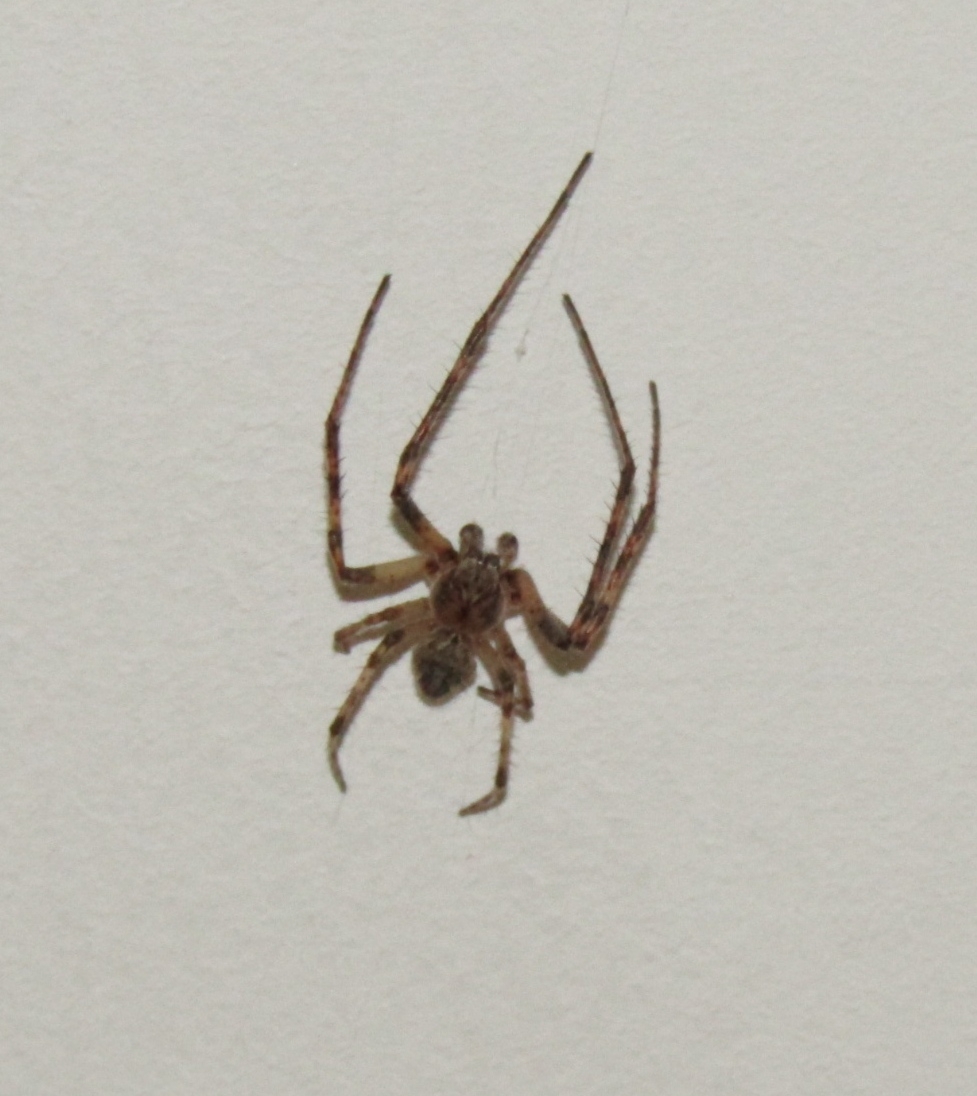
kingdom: Animalia
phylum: Arthropoda
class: Arachnida
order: Araneae
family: Araneidae
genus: Larinioides
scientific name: Larinioides ixobolus
